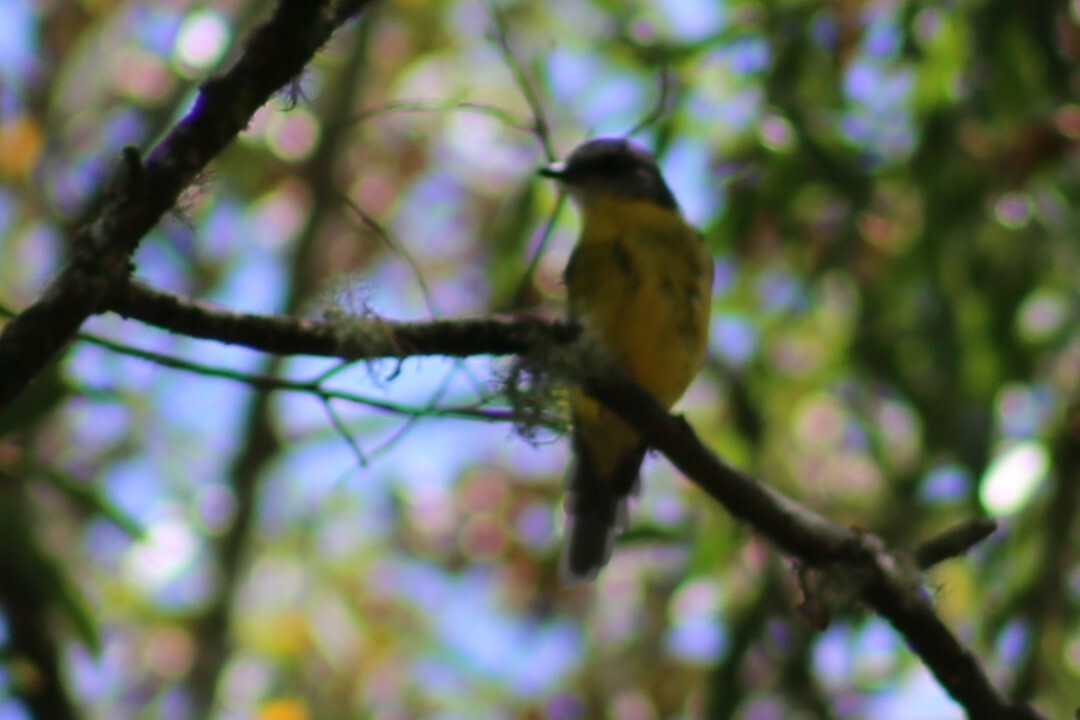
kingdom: Animalia
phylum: Chordata
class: Aves
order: Passeriformes
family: Petroicidae
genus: Eopsaltria
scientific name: Eopsaltria australis
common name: Eastern yellow robin
